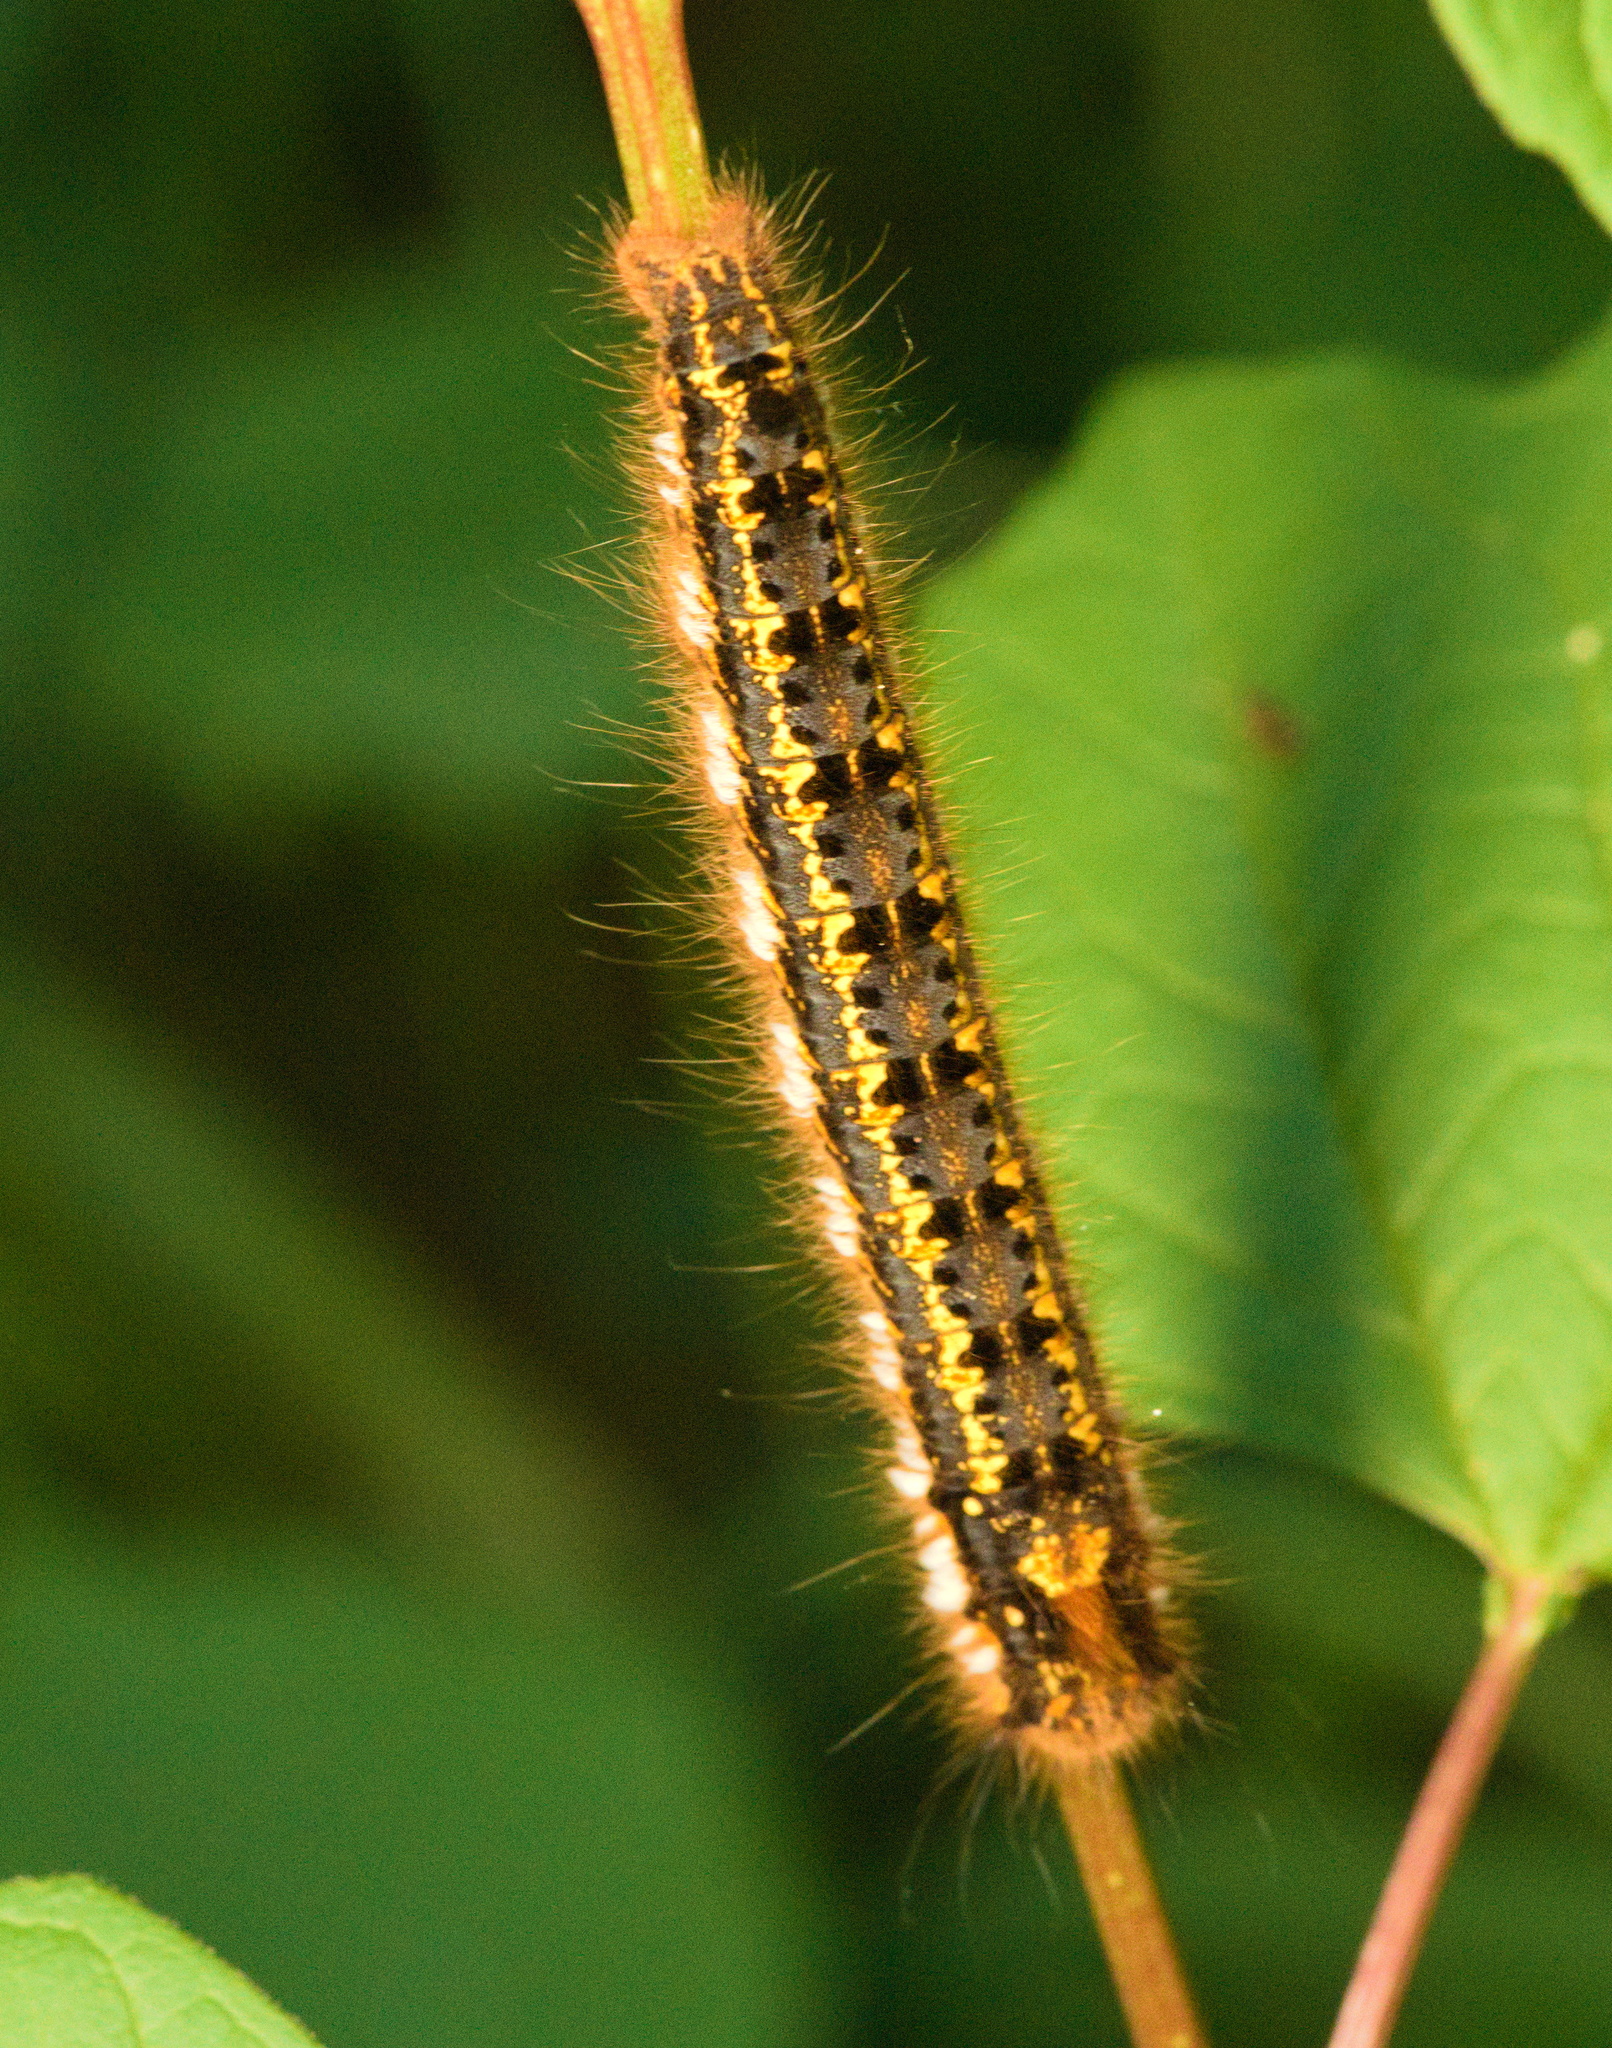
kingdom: Animalia
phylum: Arthropoda
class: Insecta
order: Lepidoptera
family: Lasiocampidae
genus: Euthrix
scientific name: Euthrix potatoria
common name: Drinker
